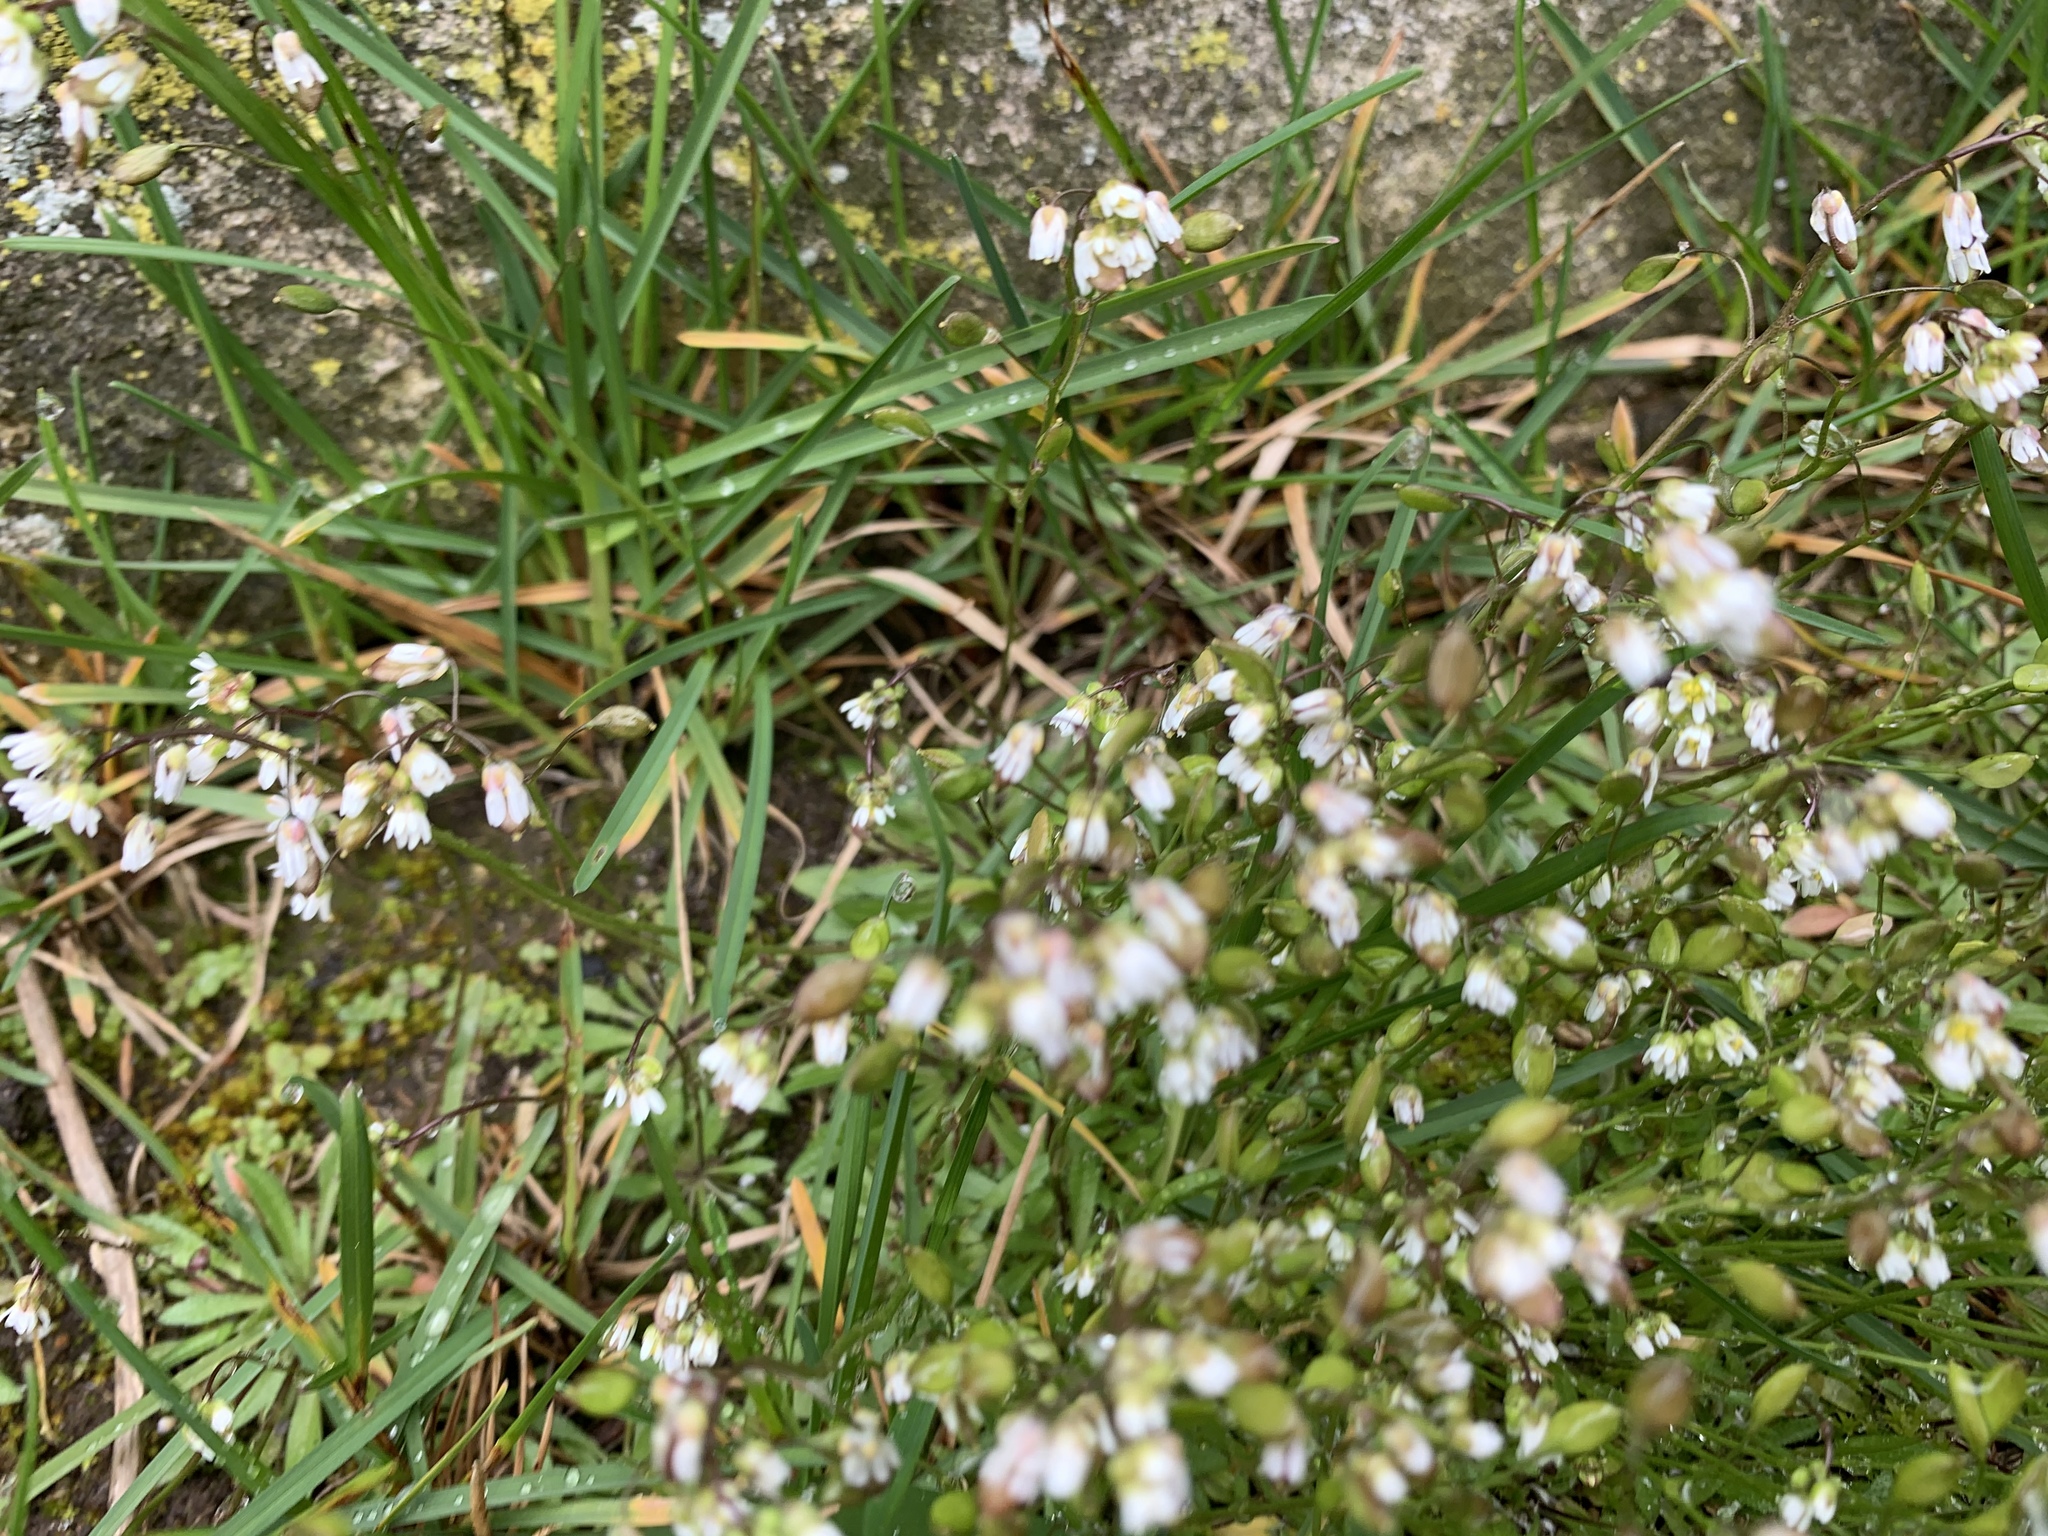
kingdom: Plantae
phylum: Tracheophyta
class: Magnoliopsida
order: Brassicales
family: Brassicaceae
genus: Draba
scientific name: Draba verna
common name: Spring draba
